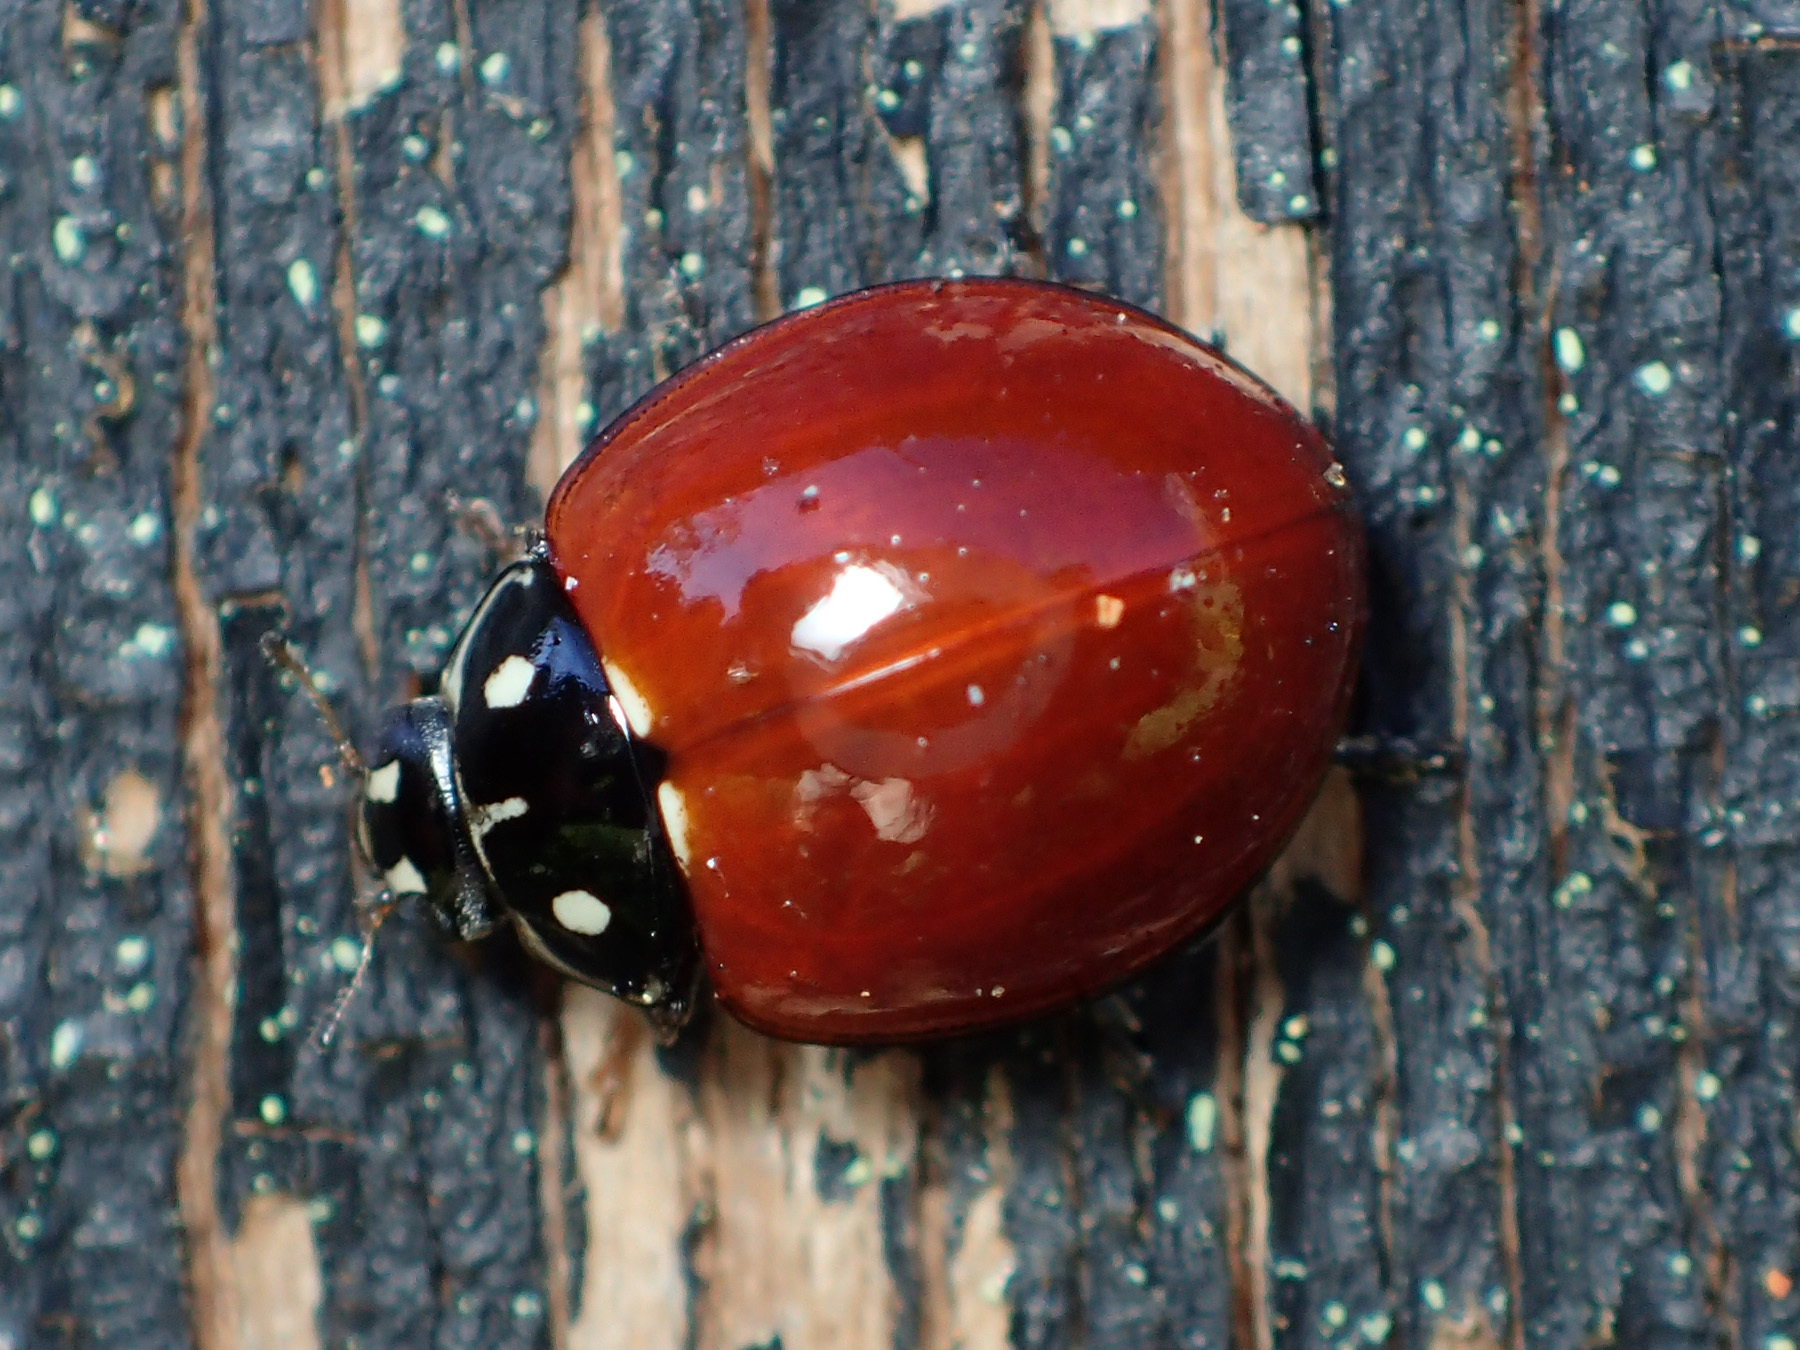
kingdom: Animalia
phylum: Arthropoda
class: Insecta
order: Coleoptera
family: Coccinellidae
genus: Cycloneda
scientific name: Cycloneda sanguinea
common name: Ladybird beetle
